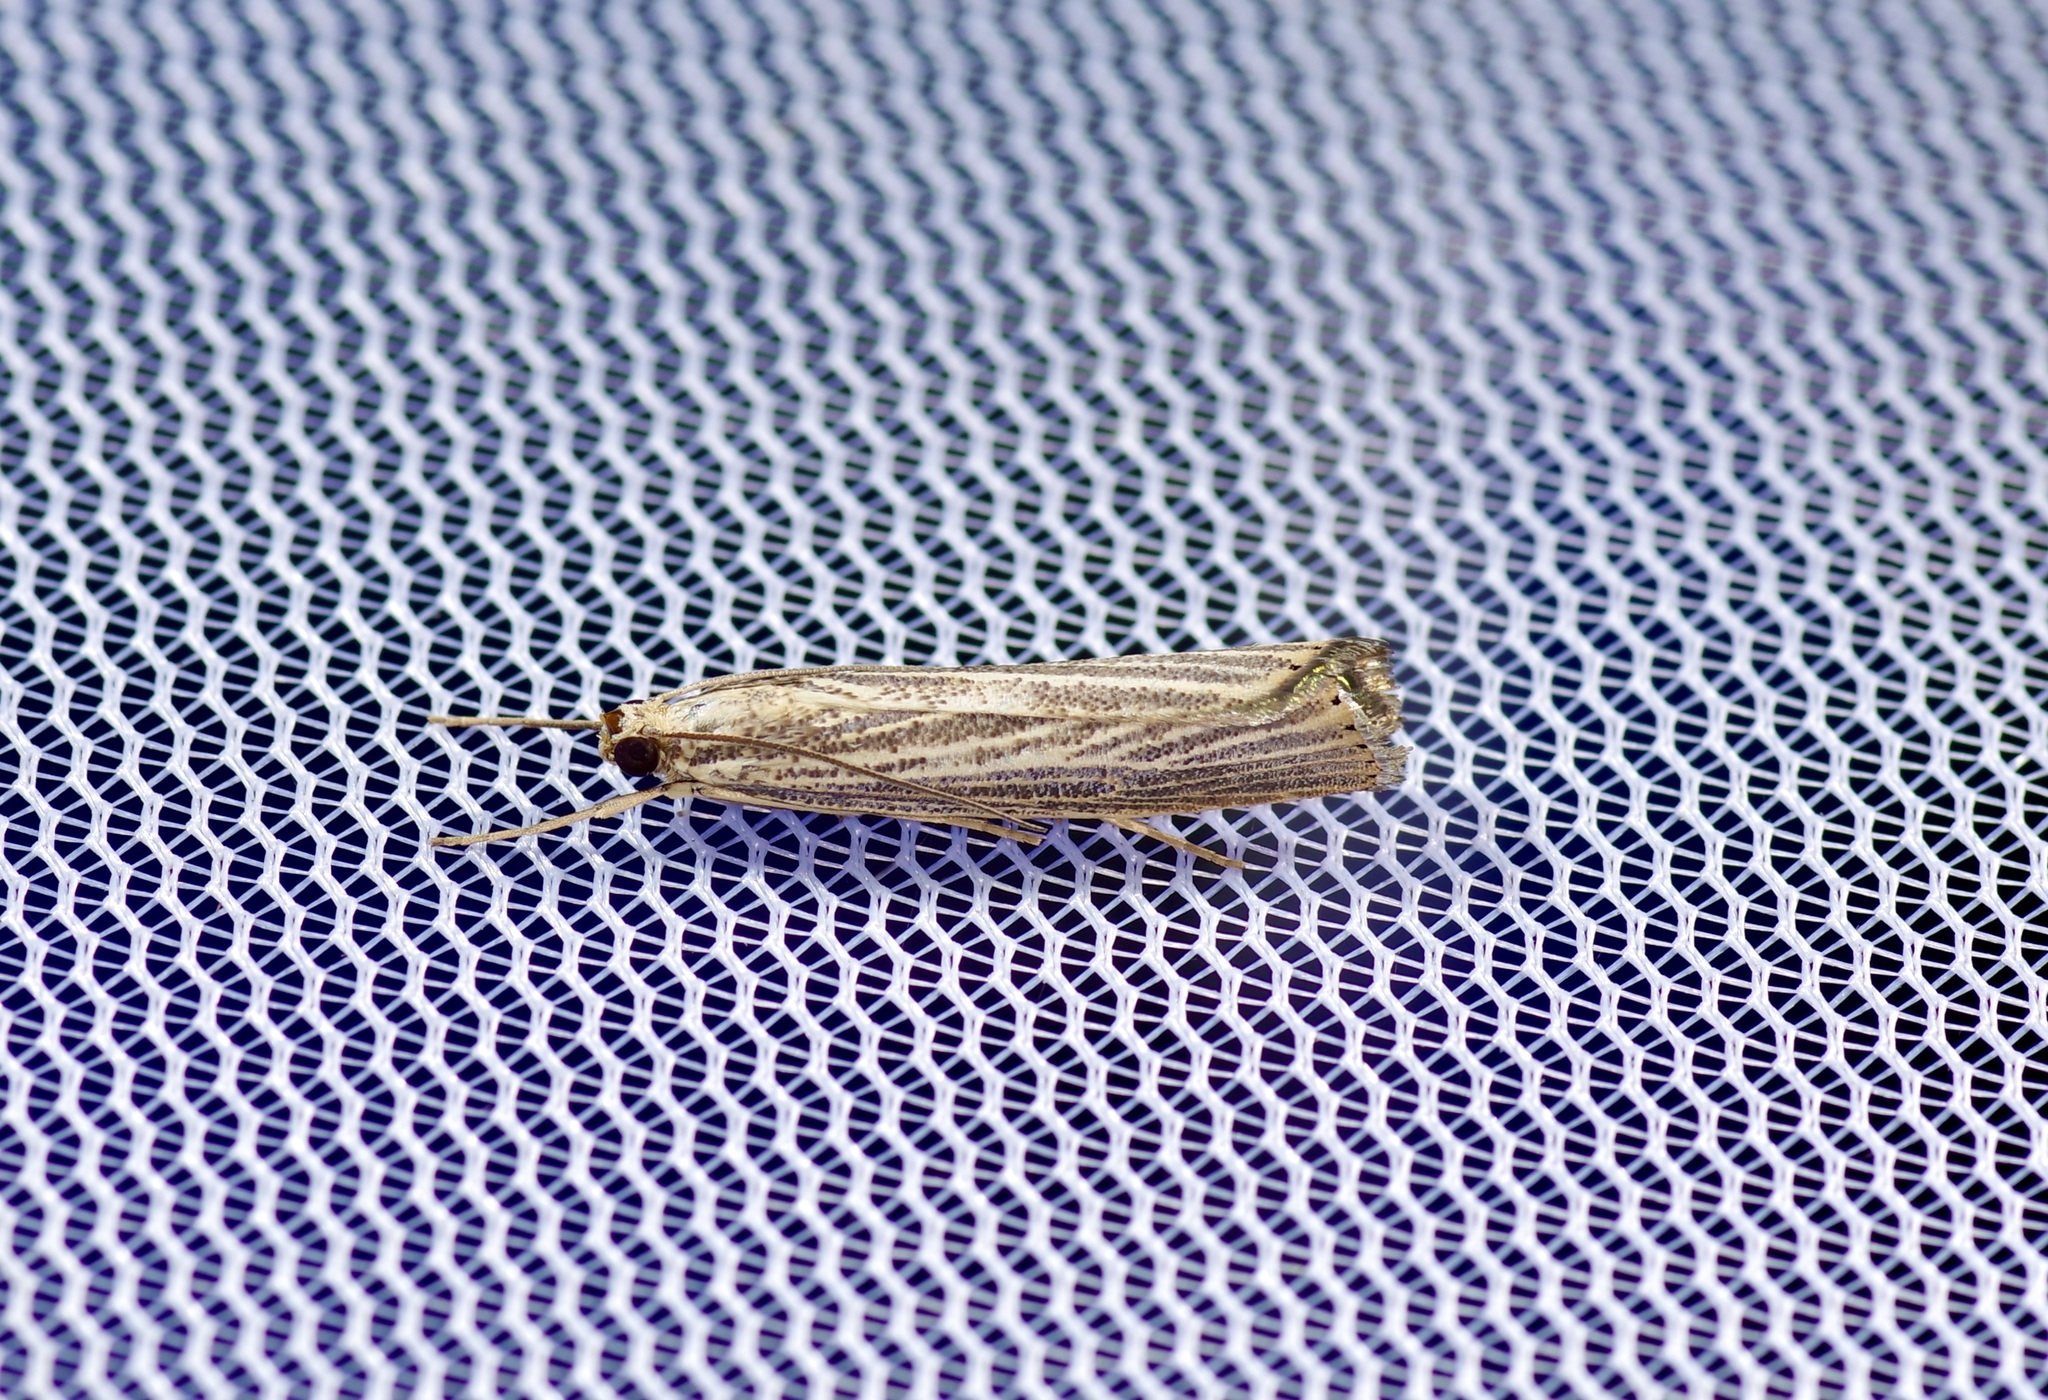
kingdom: Animalia
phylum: Arthropoda
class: Insecta
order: Lepidoptera
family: Crambidae
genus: Agriphila
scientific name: Agriphila vulgivagellus
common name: Vagabond crambus moth
